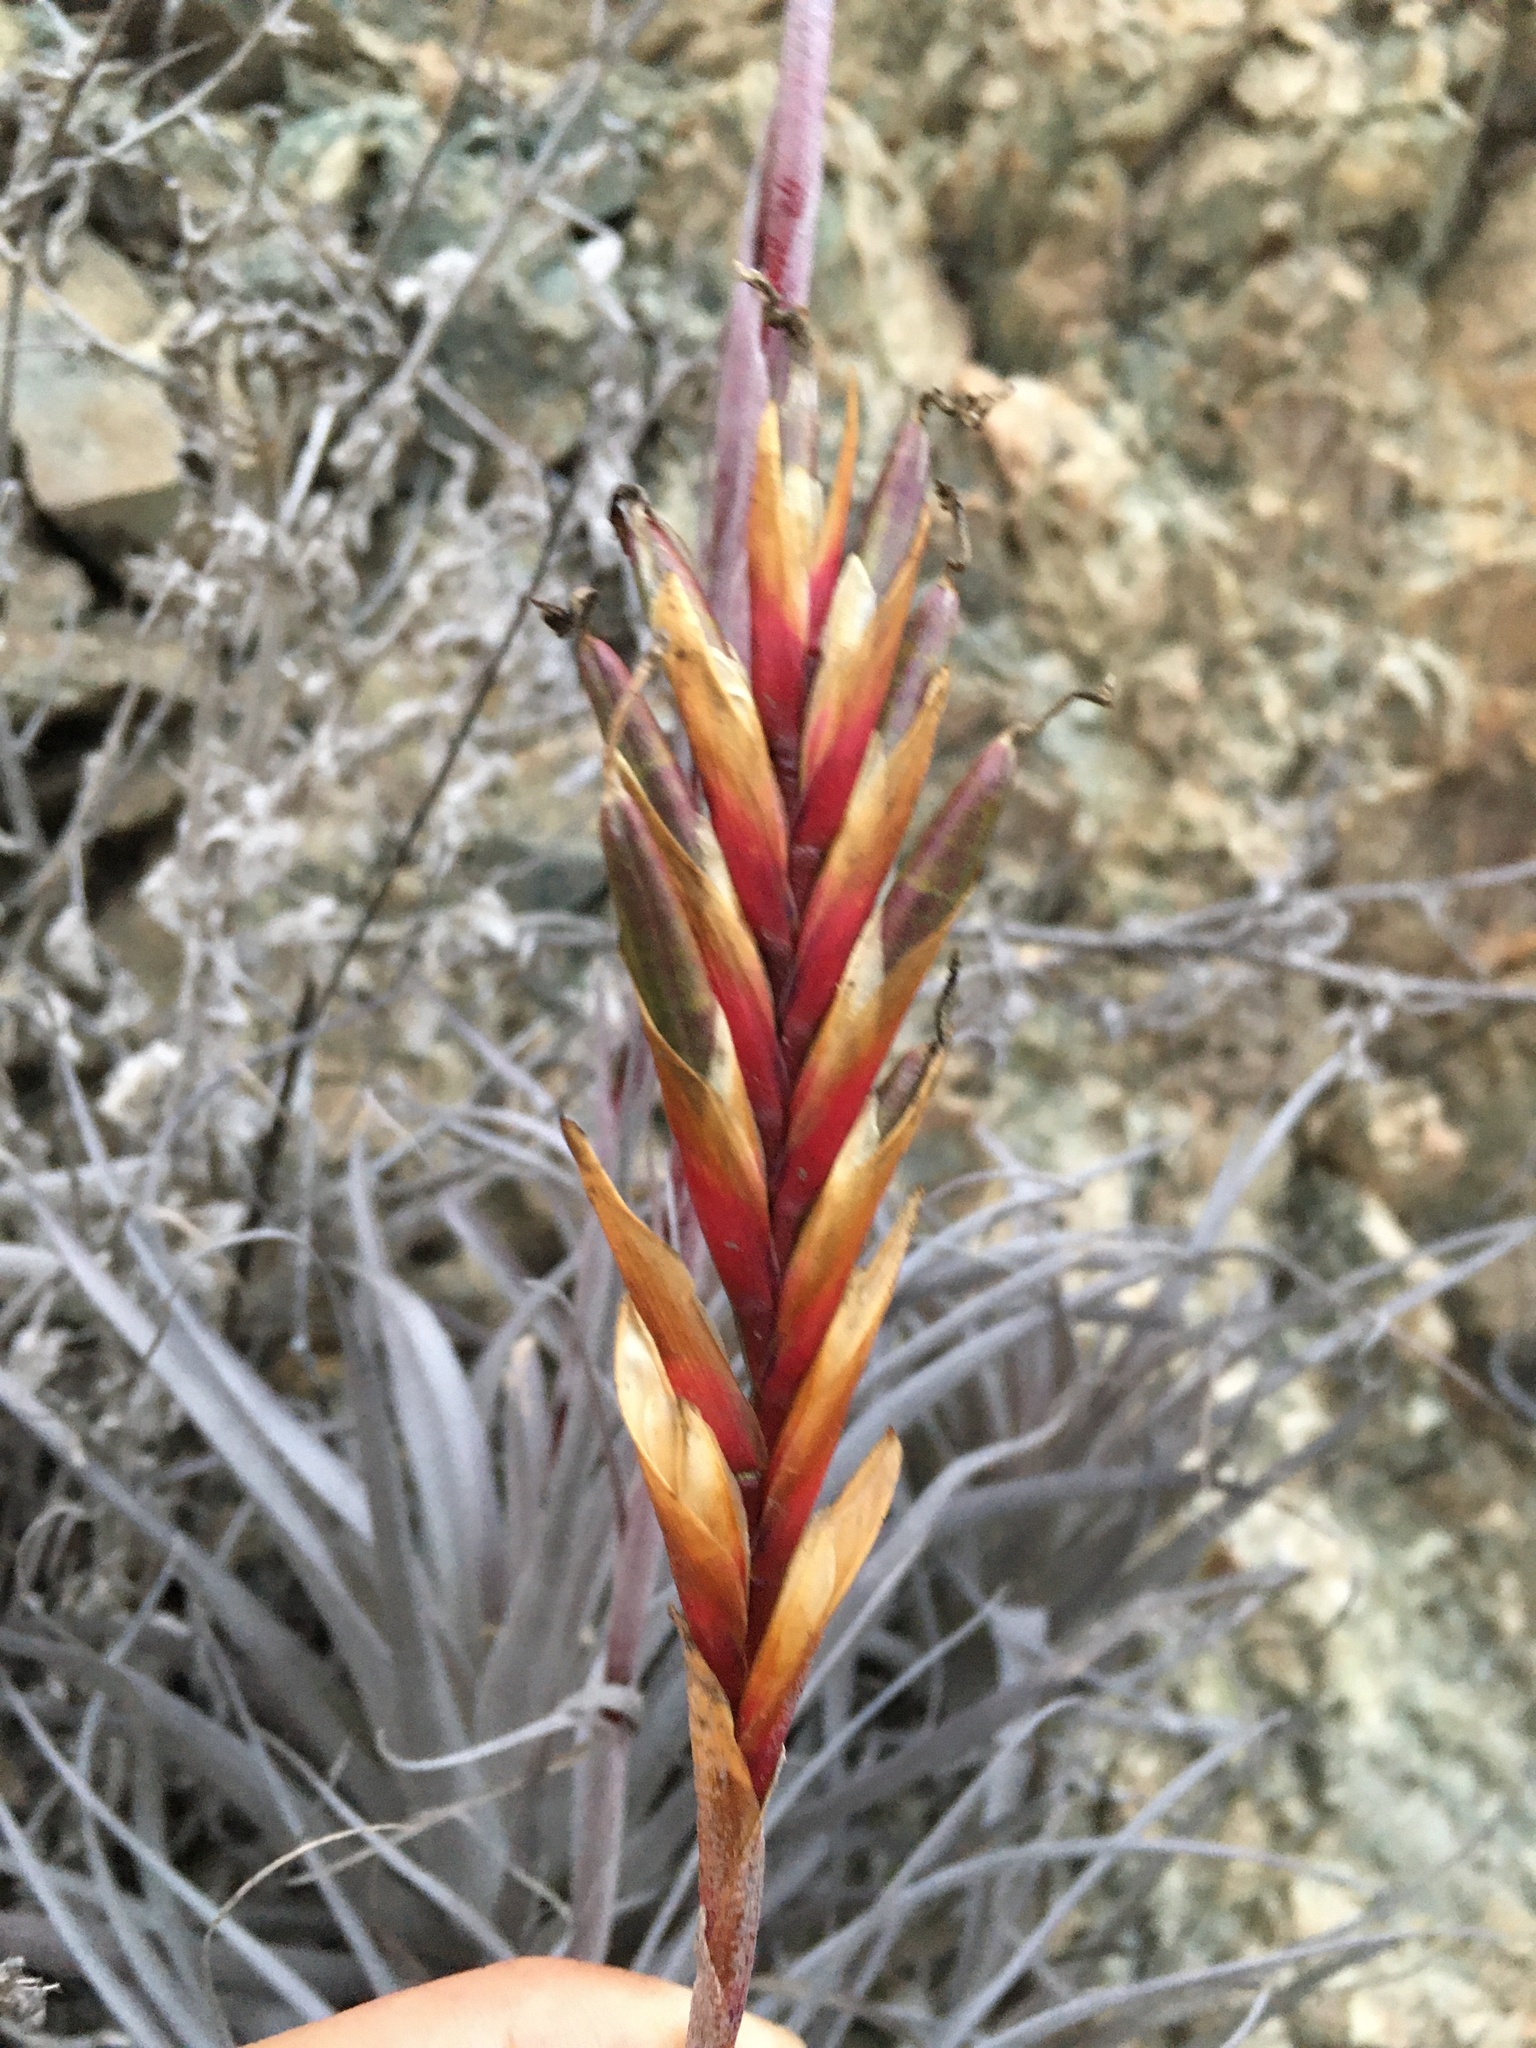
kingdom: Plantae
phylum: Tracheophyta
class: Liliopsida
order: Poales
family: Bromeliaceae
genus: Tillandsia
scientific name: Tillandsia geissei
